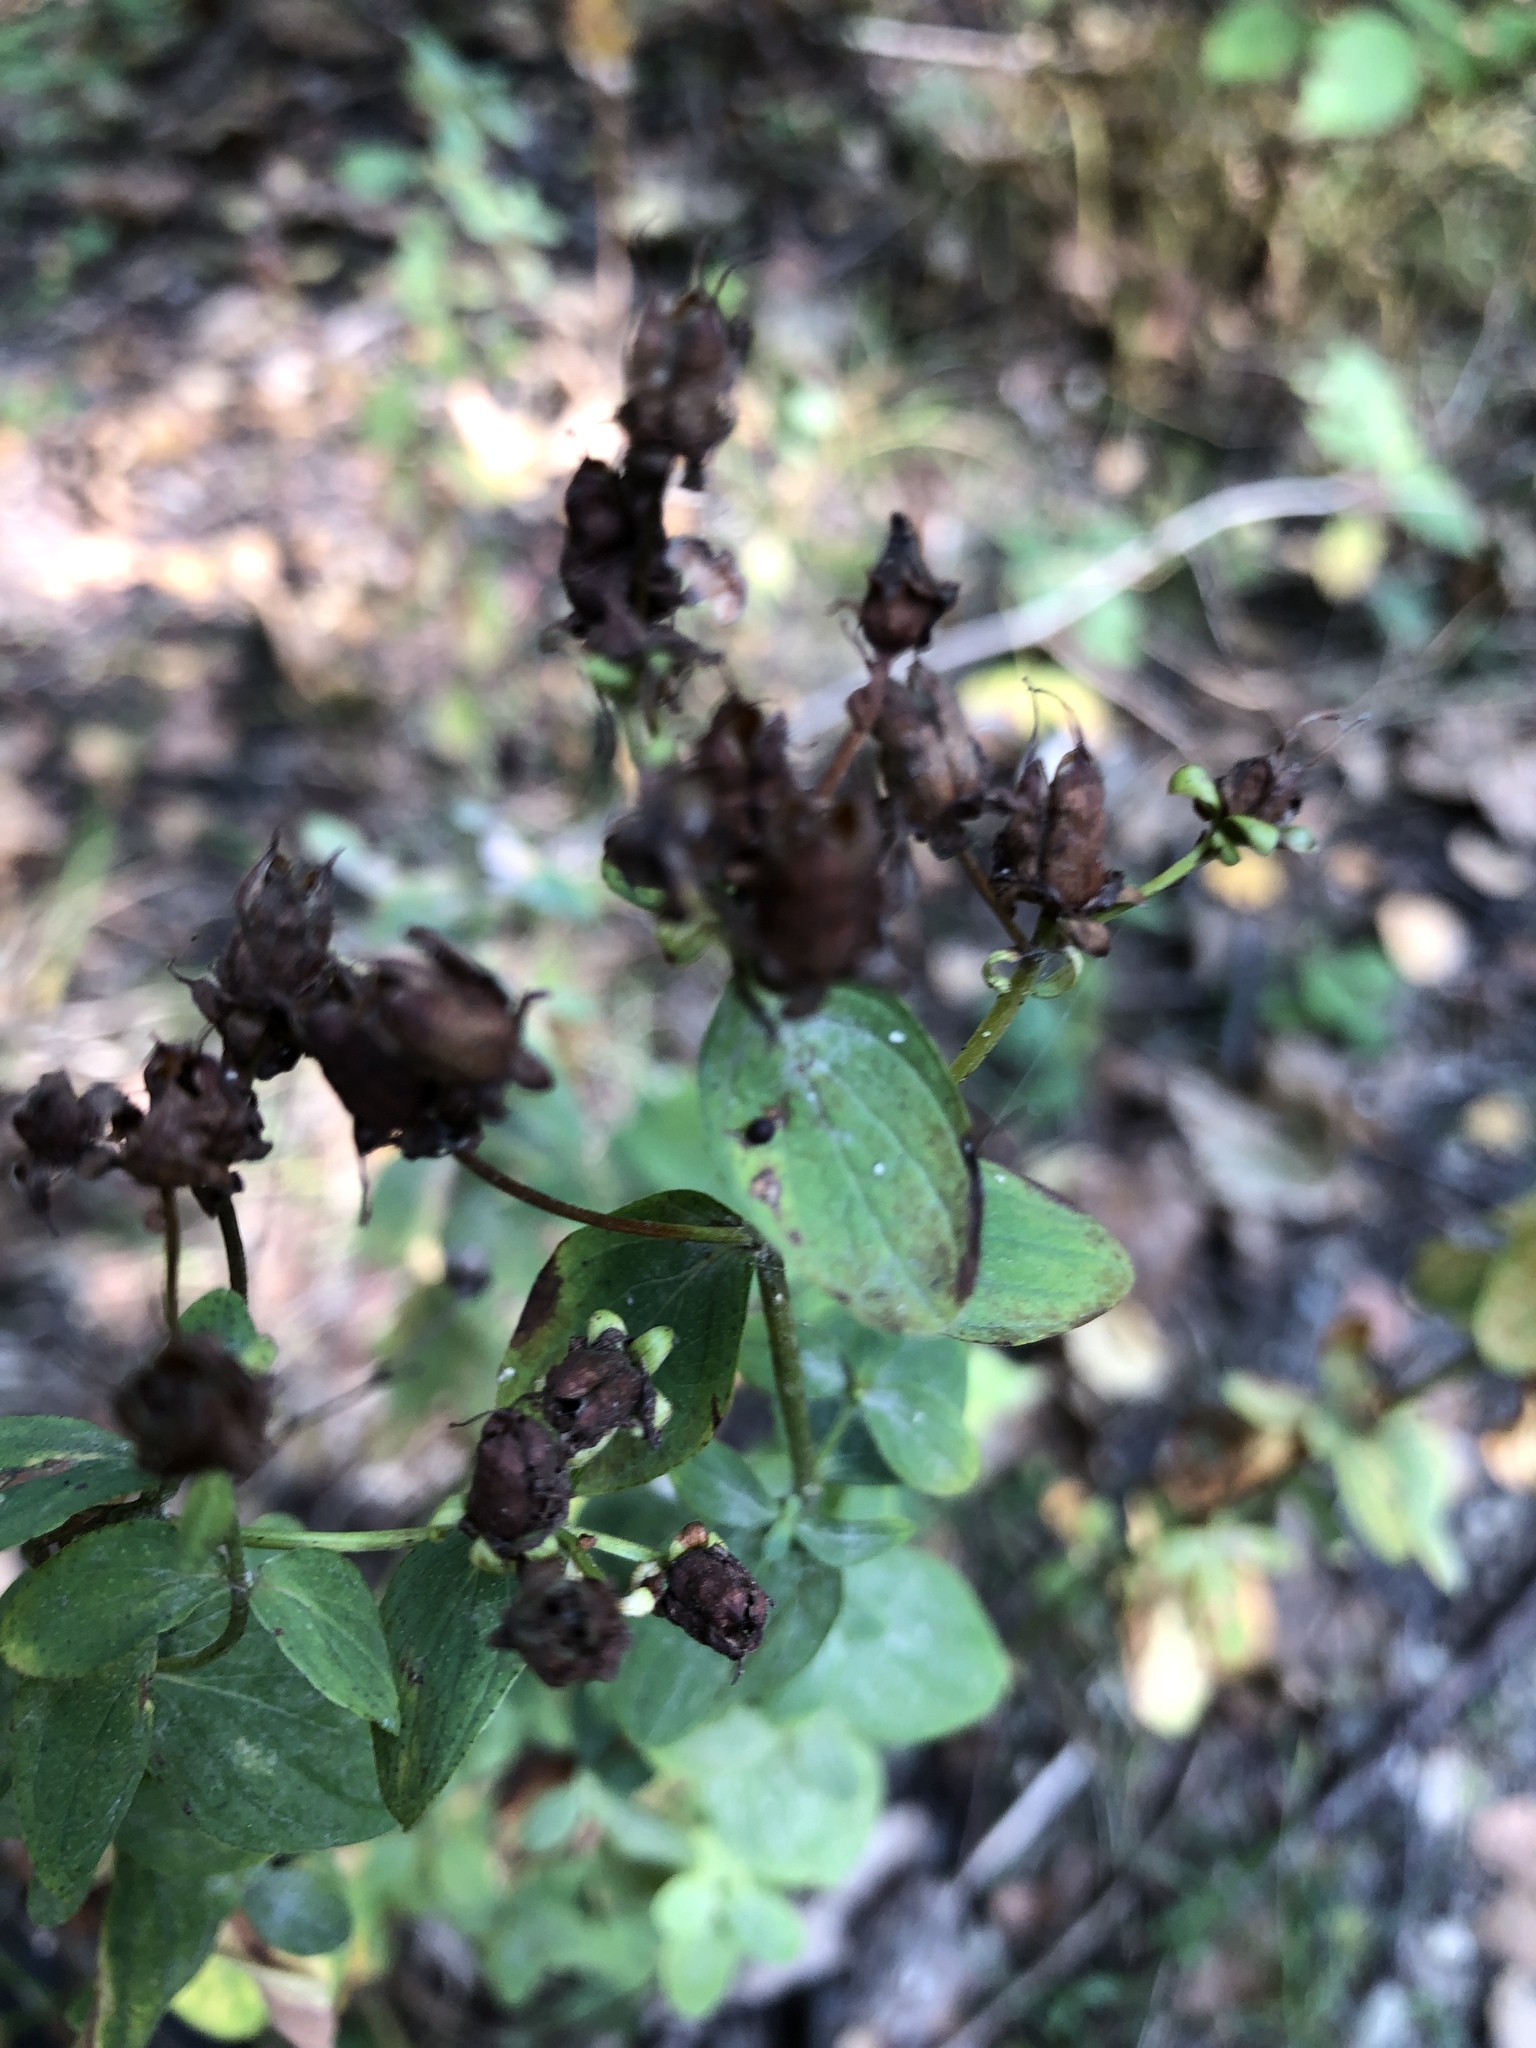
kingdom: Plantae
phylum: Tracheophyta
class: Magnoliopsida
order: Malpighiales
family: Hypericaceae
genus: Hypericum
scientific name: Hypericum maculatum
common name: Imperforate st. john's-wort
